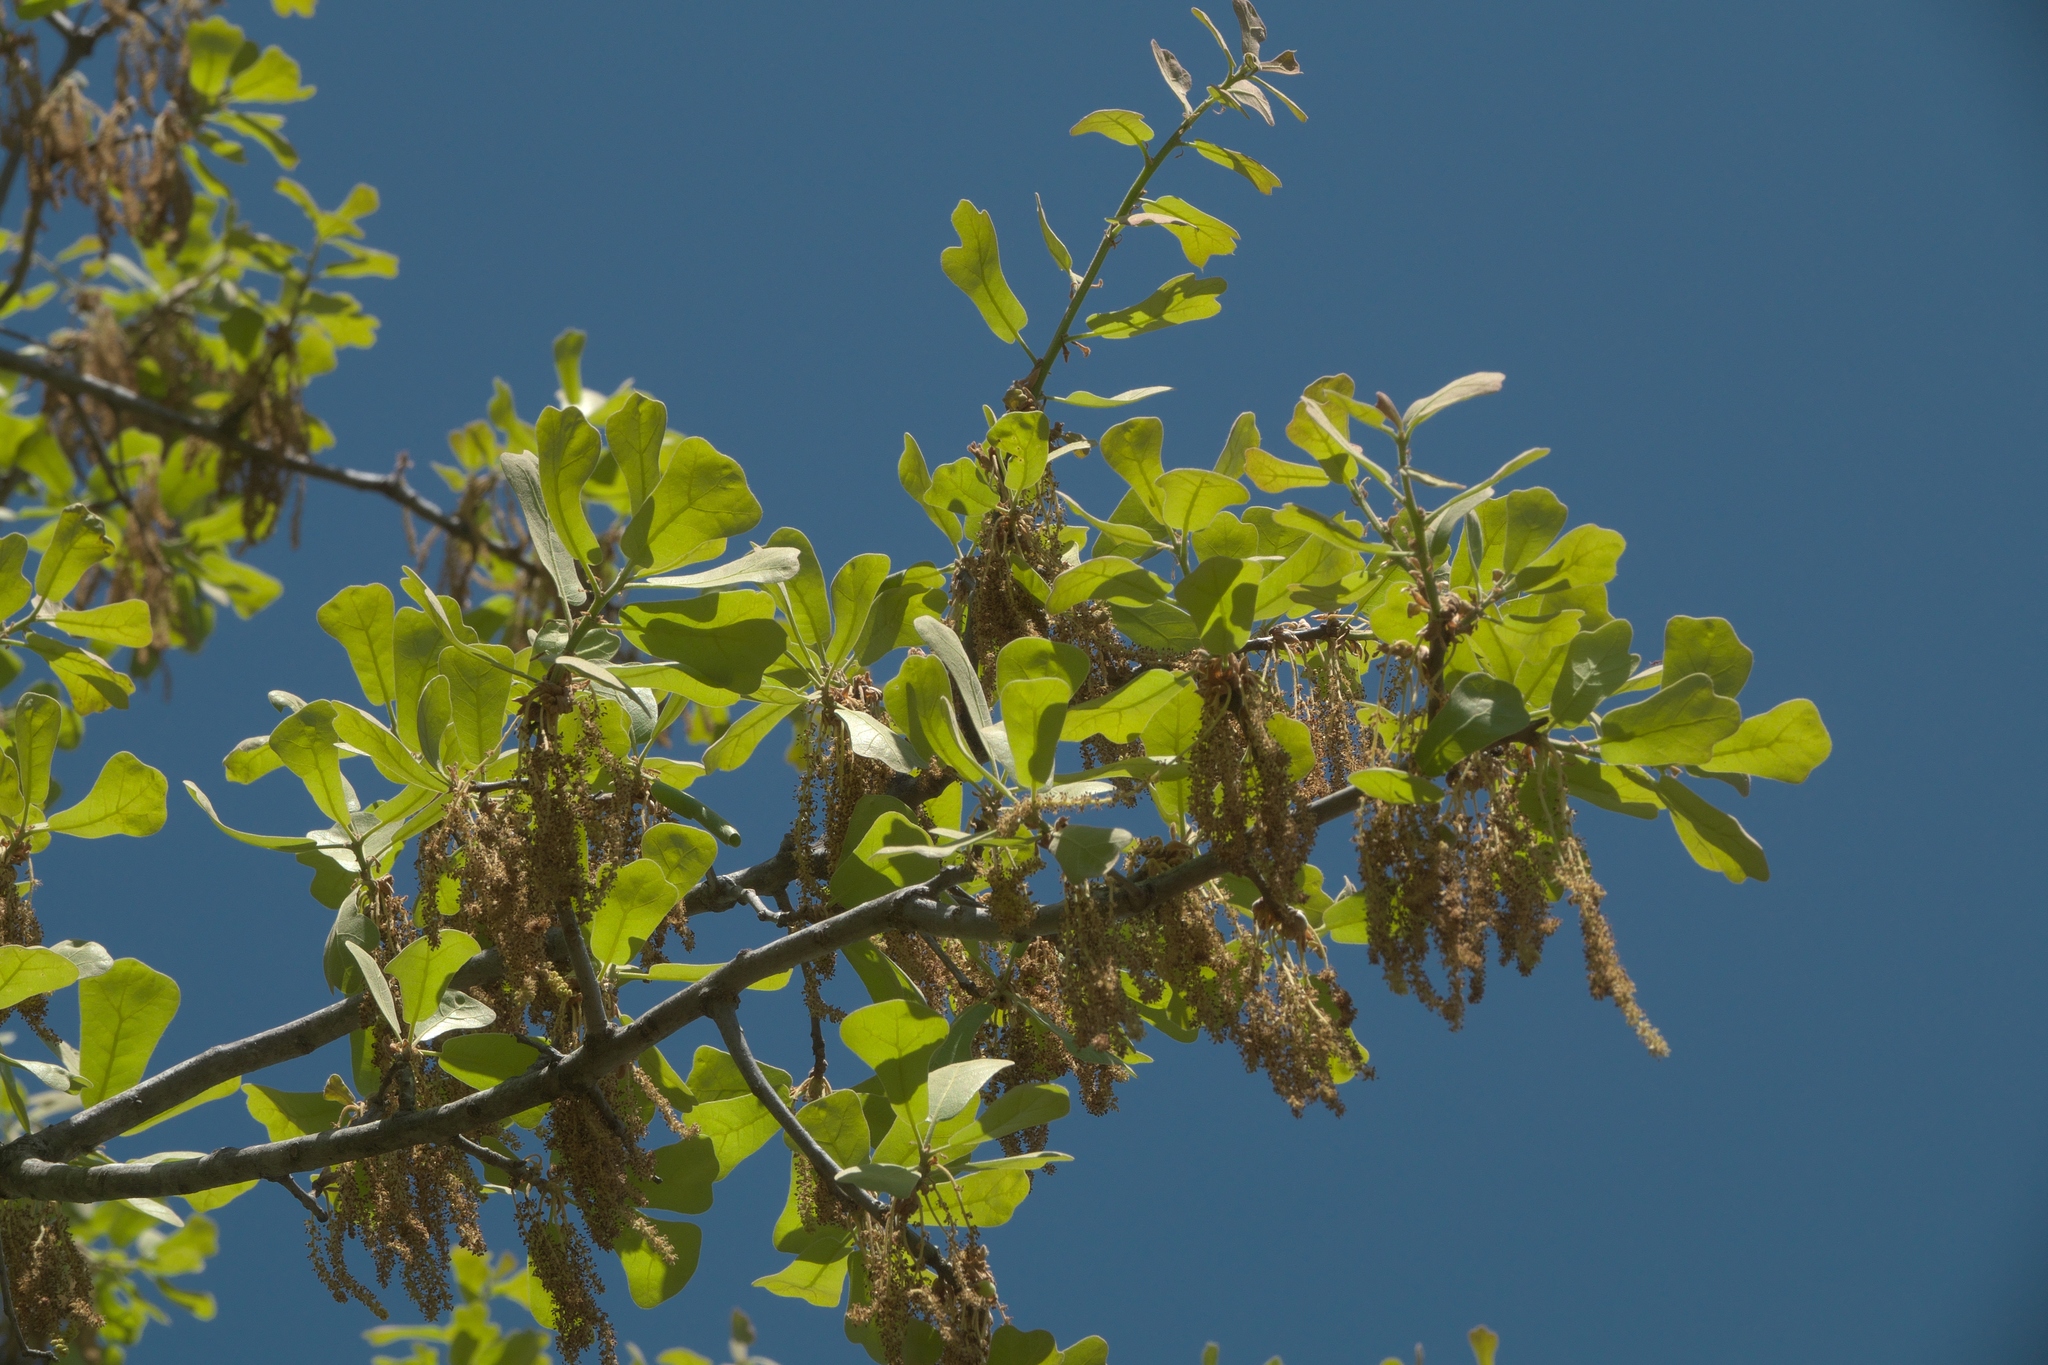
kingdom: Plantae
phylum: Tracheophyta
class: Magnoliopsida
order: Fagales
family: Fagaceae
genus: Quercus
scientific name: Quercus marilandica
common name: Blackjack oak
